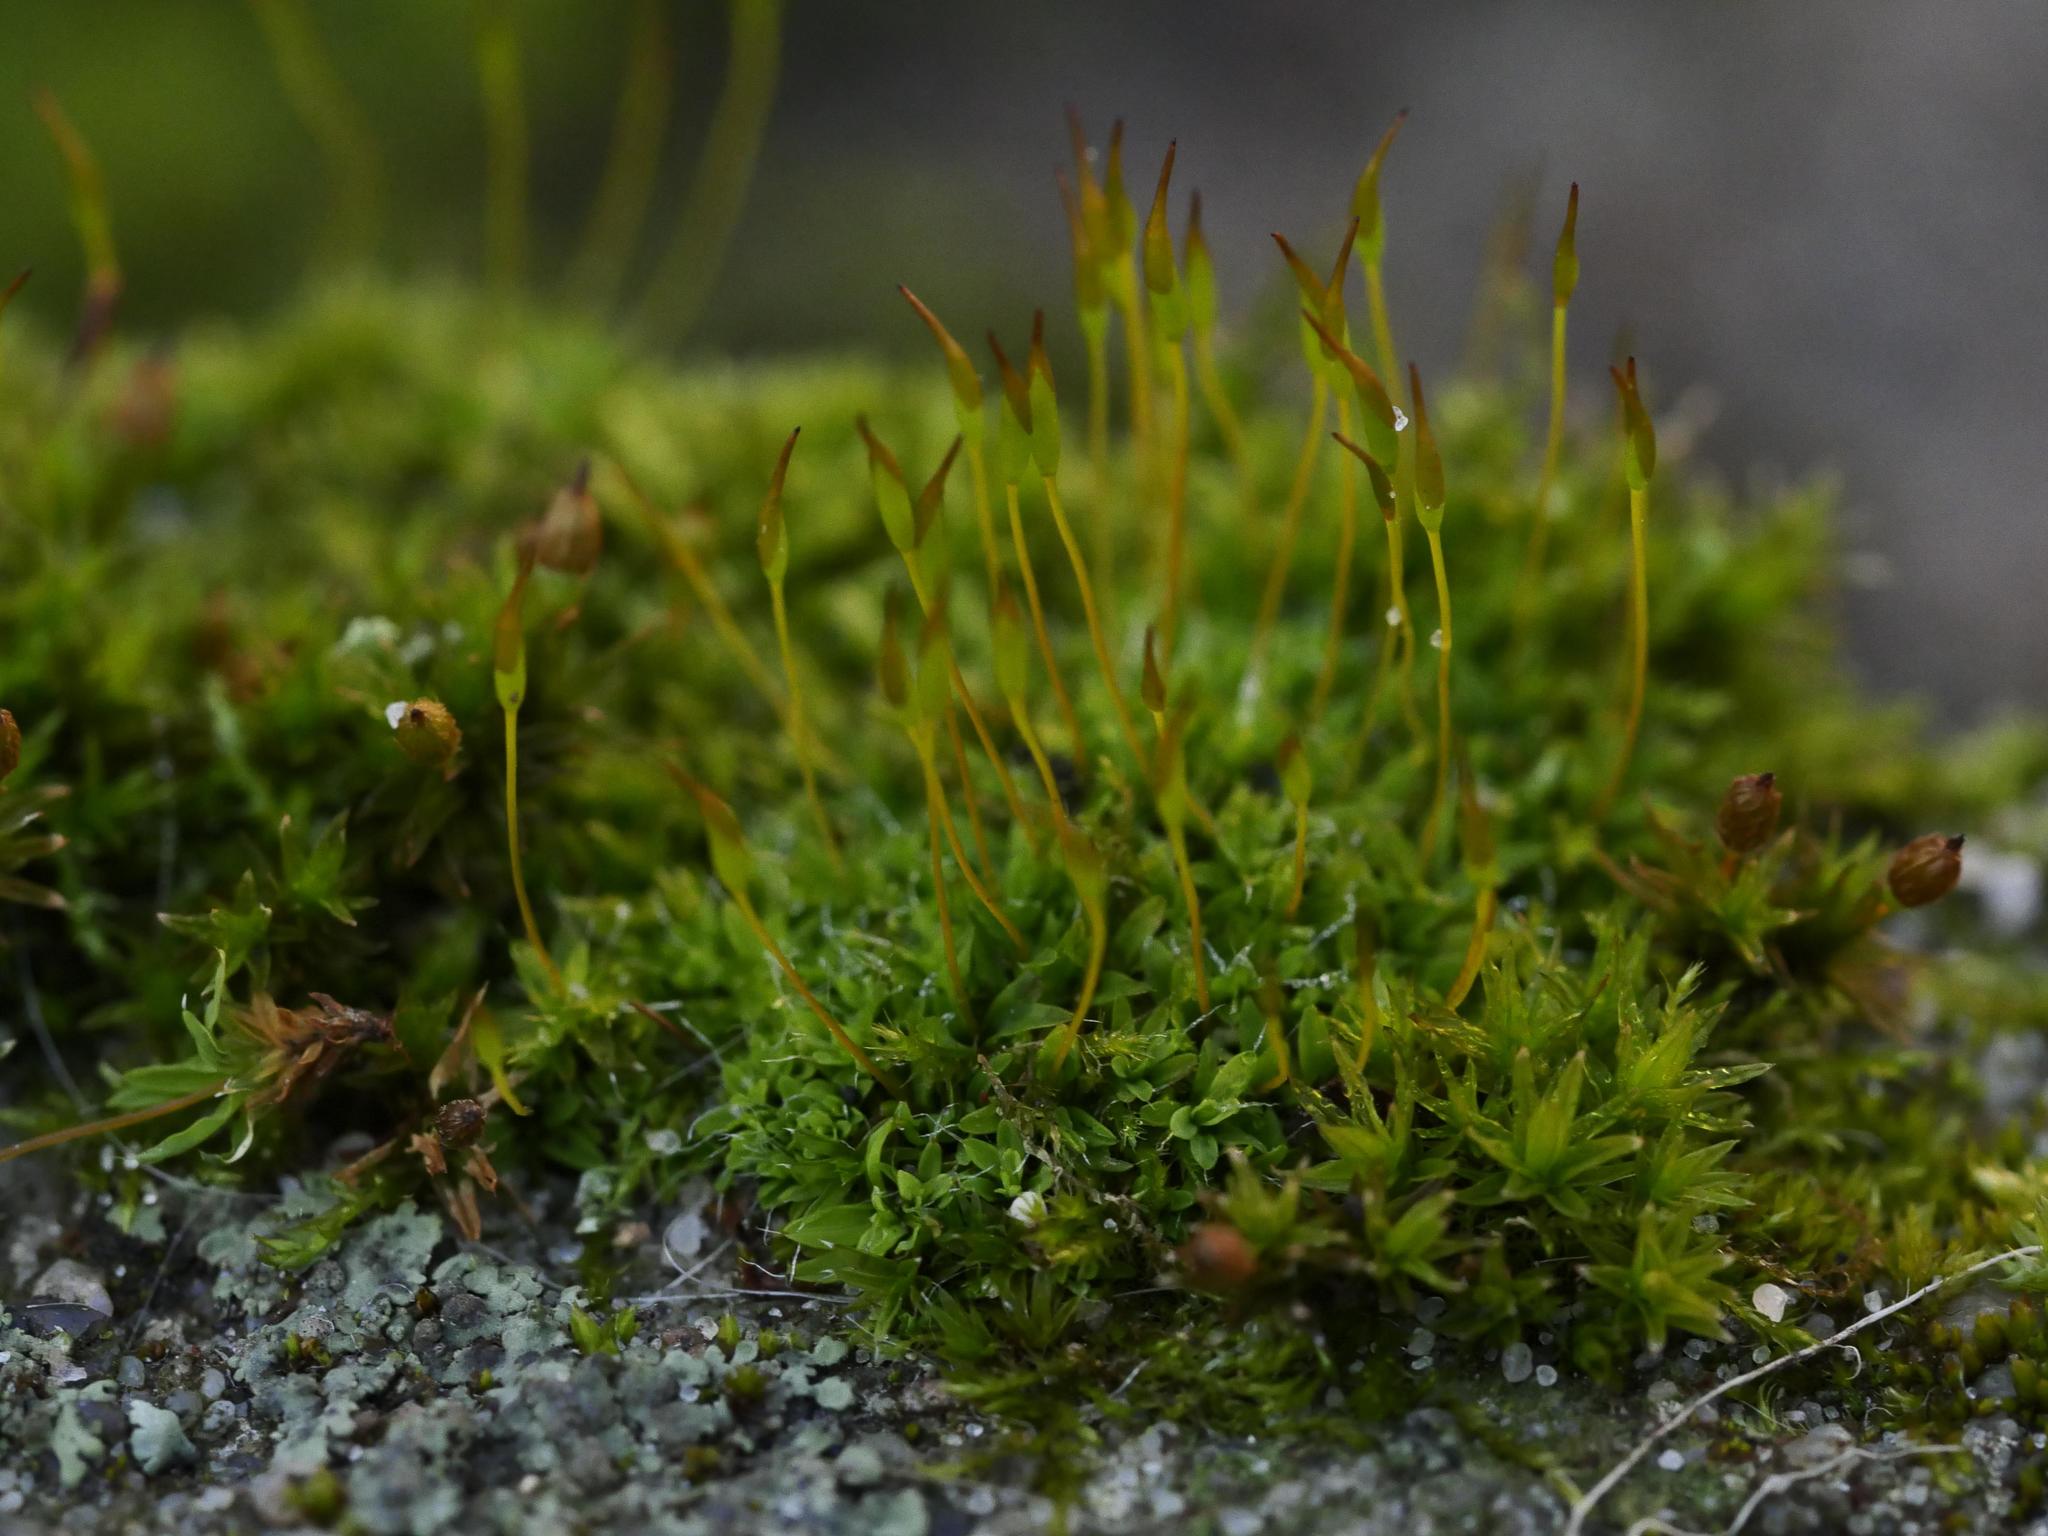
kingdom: Plantae
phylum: Bryophyta
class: Bryopsida
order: Pottiales
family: Pottiaceae
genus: Tortula
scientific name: Tortula muralis
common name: Wall screw-moss
